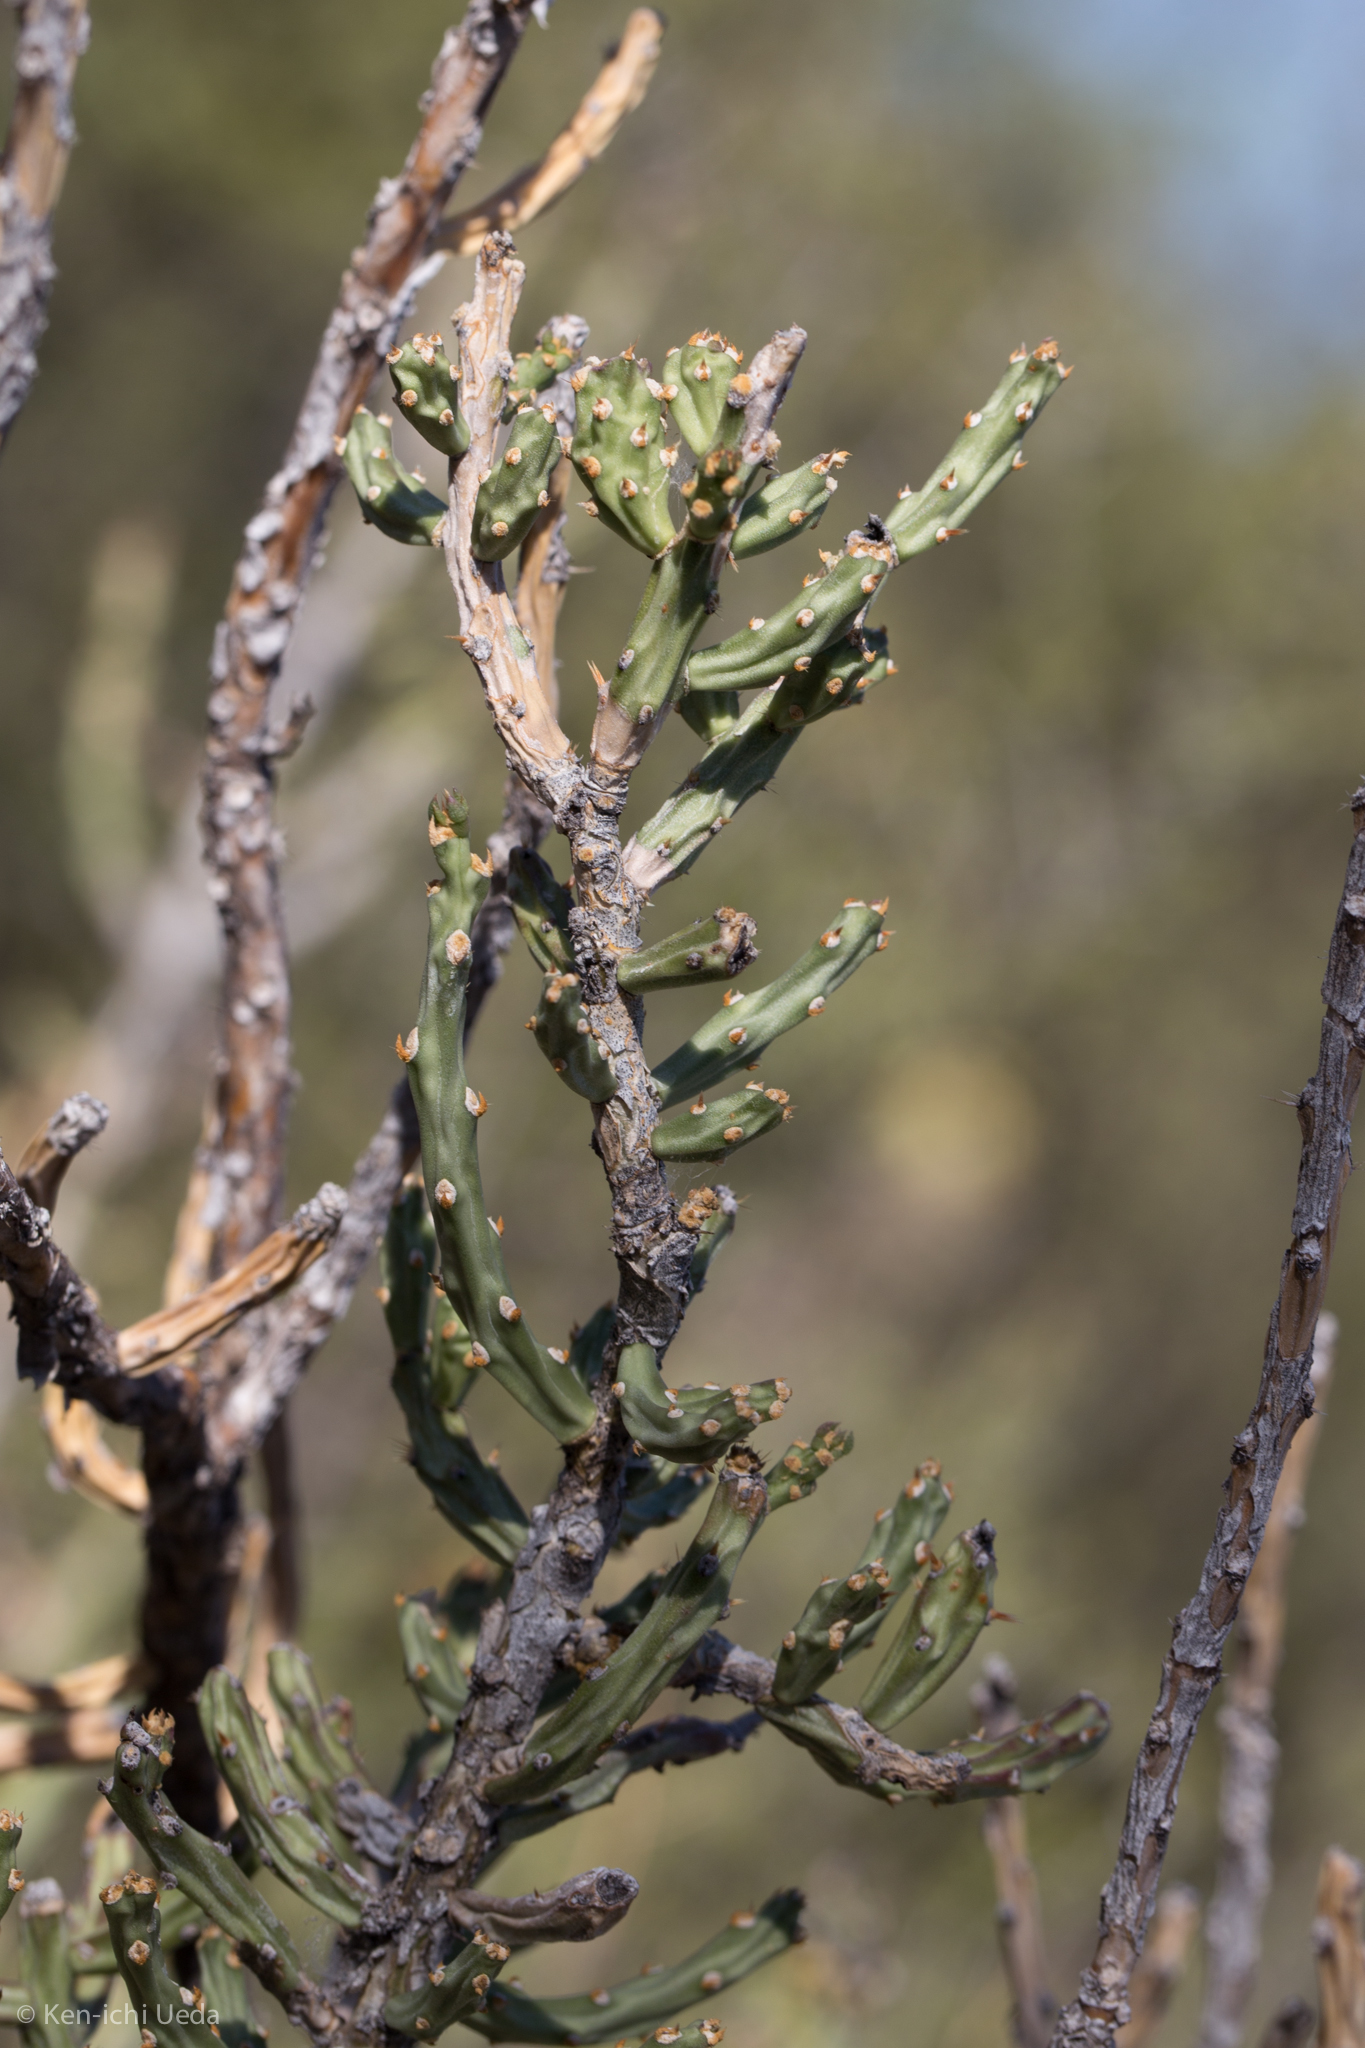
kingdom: Plantae
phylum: Tracheophyta
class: Magnoliopsida
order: Caryophyllales
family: Cactaceae
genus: Cylindropuntia
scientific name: Cylindropuntia leptocaulis
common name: Christmas cactus
